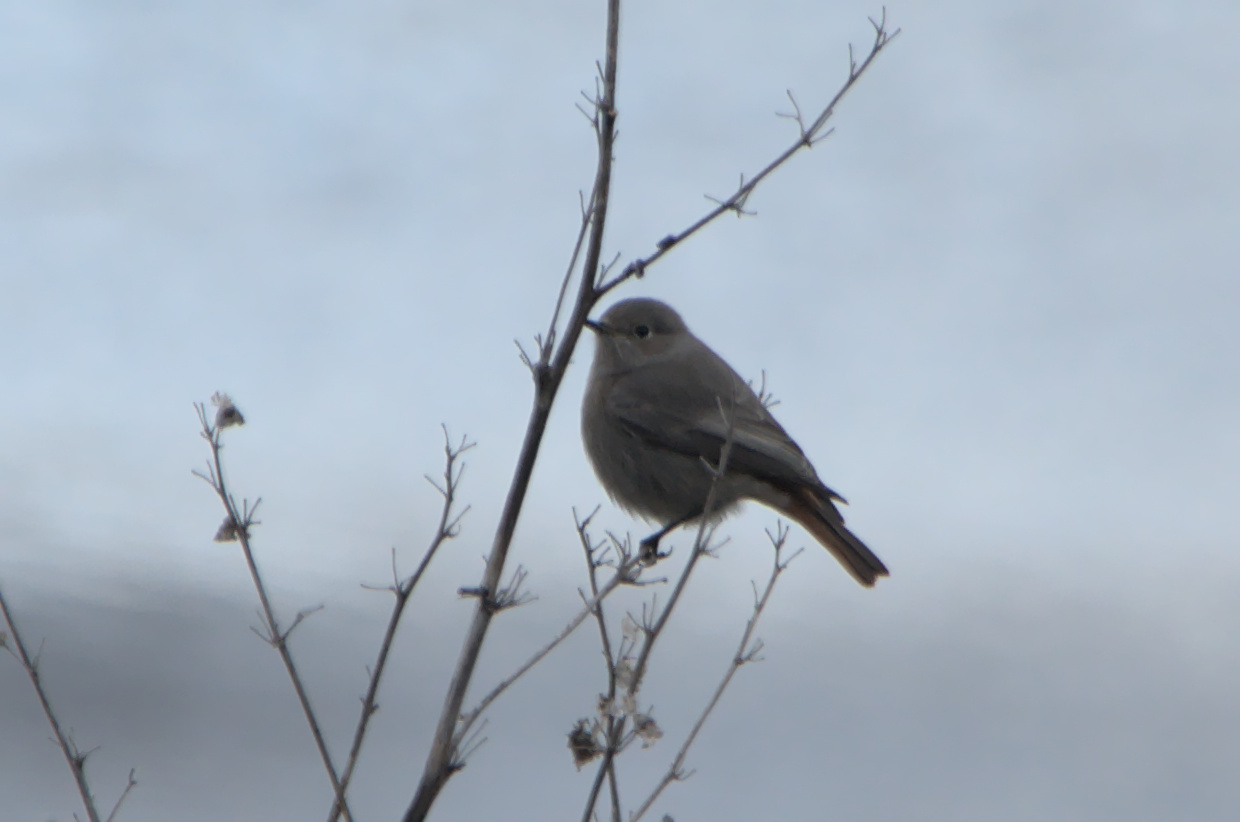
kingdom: Animalia
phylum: Chordata
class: Aves
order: Passeriformes
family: Muscicapidae
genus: Phoenicurus
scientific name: Phoenicurus ochruros
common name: Black redstart
